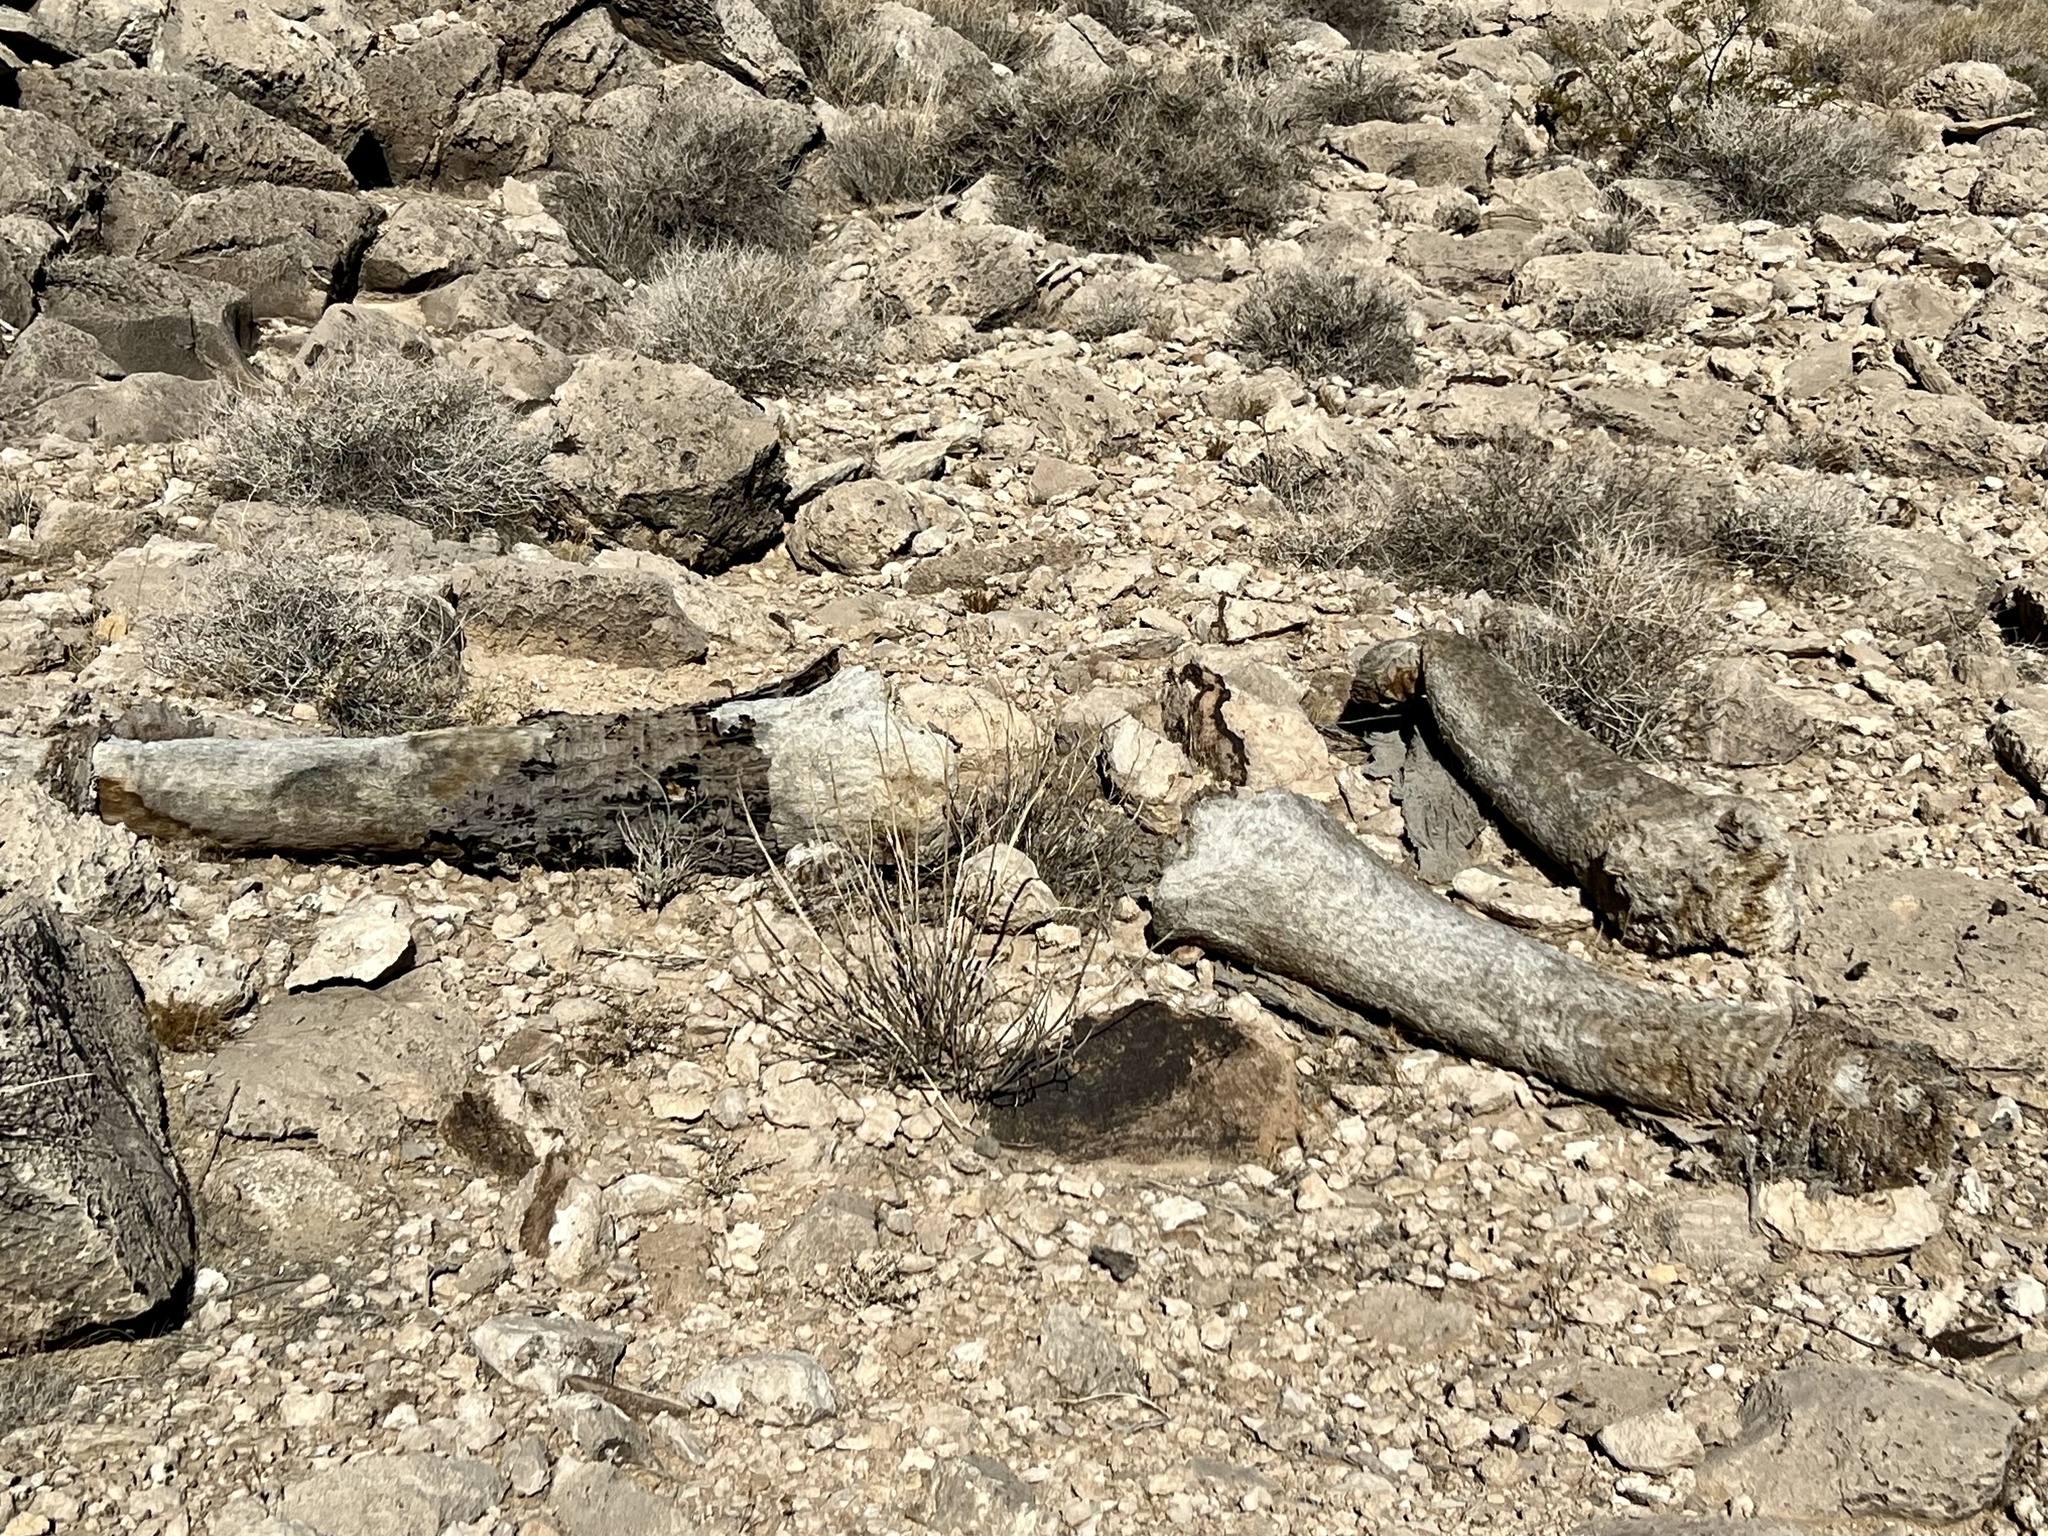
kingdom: Plantae
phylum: Tracheophyta
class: Liliopsida
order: Asparagales
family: Asparagaceae
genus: Yucca
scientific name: Yucca schidigera
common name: Mojave yucca
